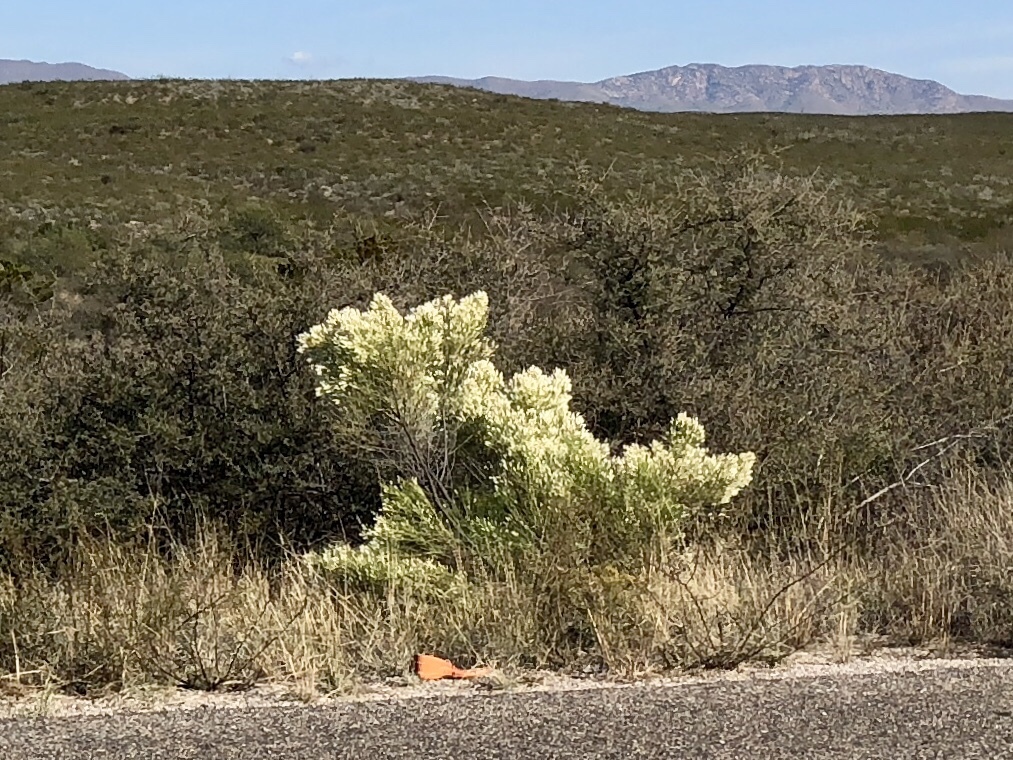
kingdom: Plantae
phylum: Tracheophyta
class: Magnoliopsida
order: Asterales
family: Asteraceae
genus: Baccharis
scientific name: Baccharis sarothroides
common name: Desert-broom
